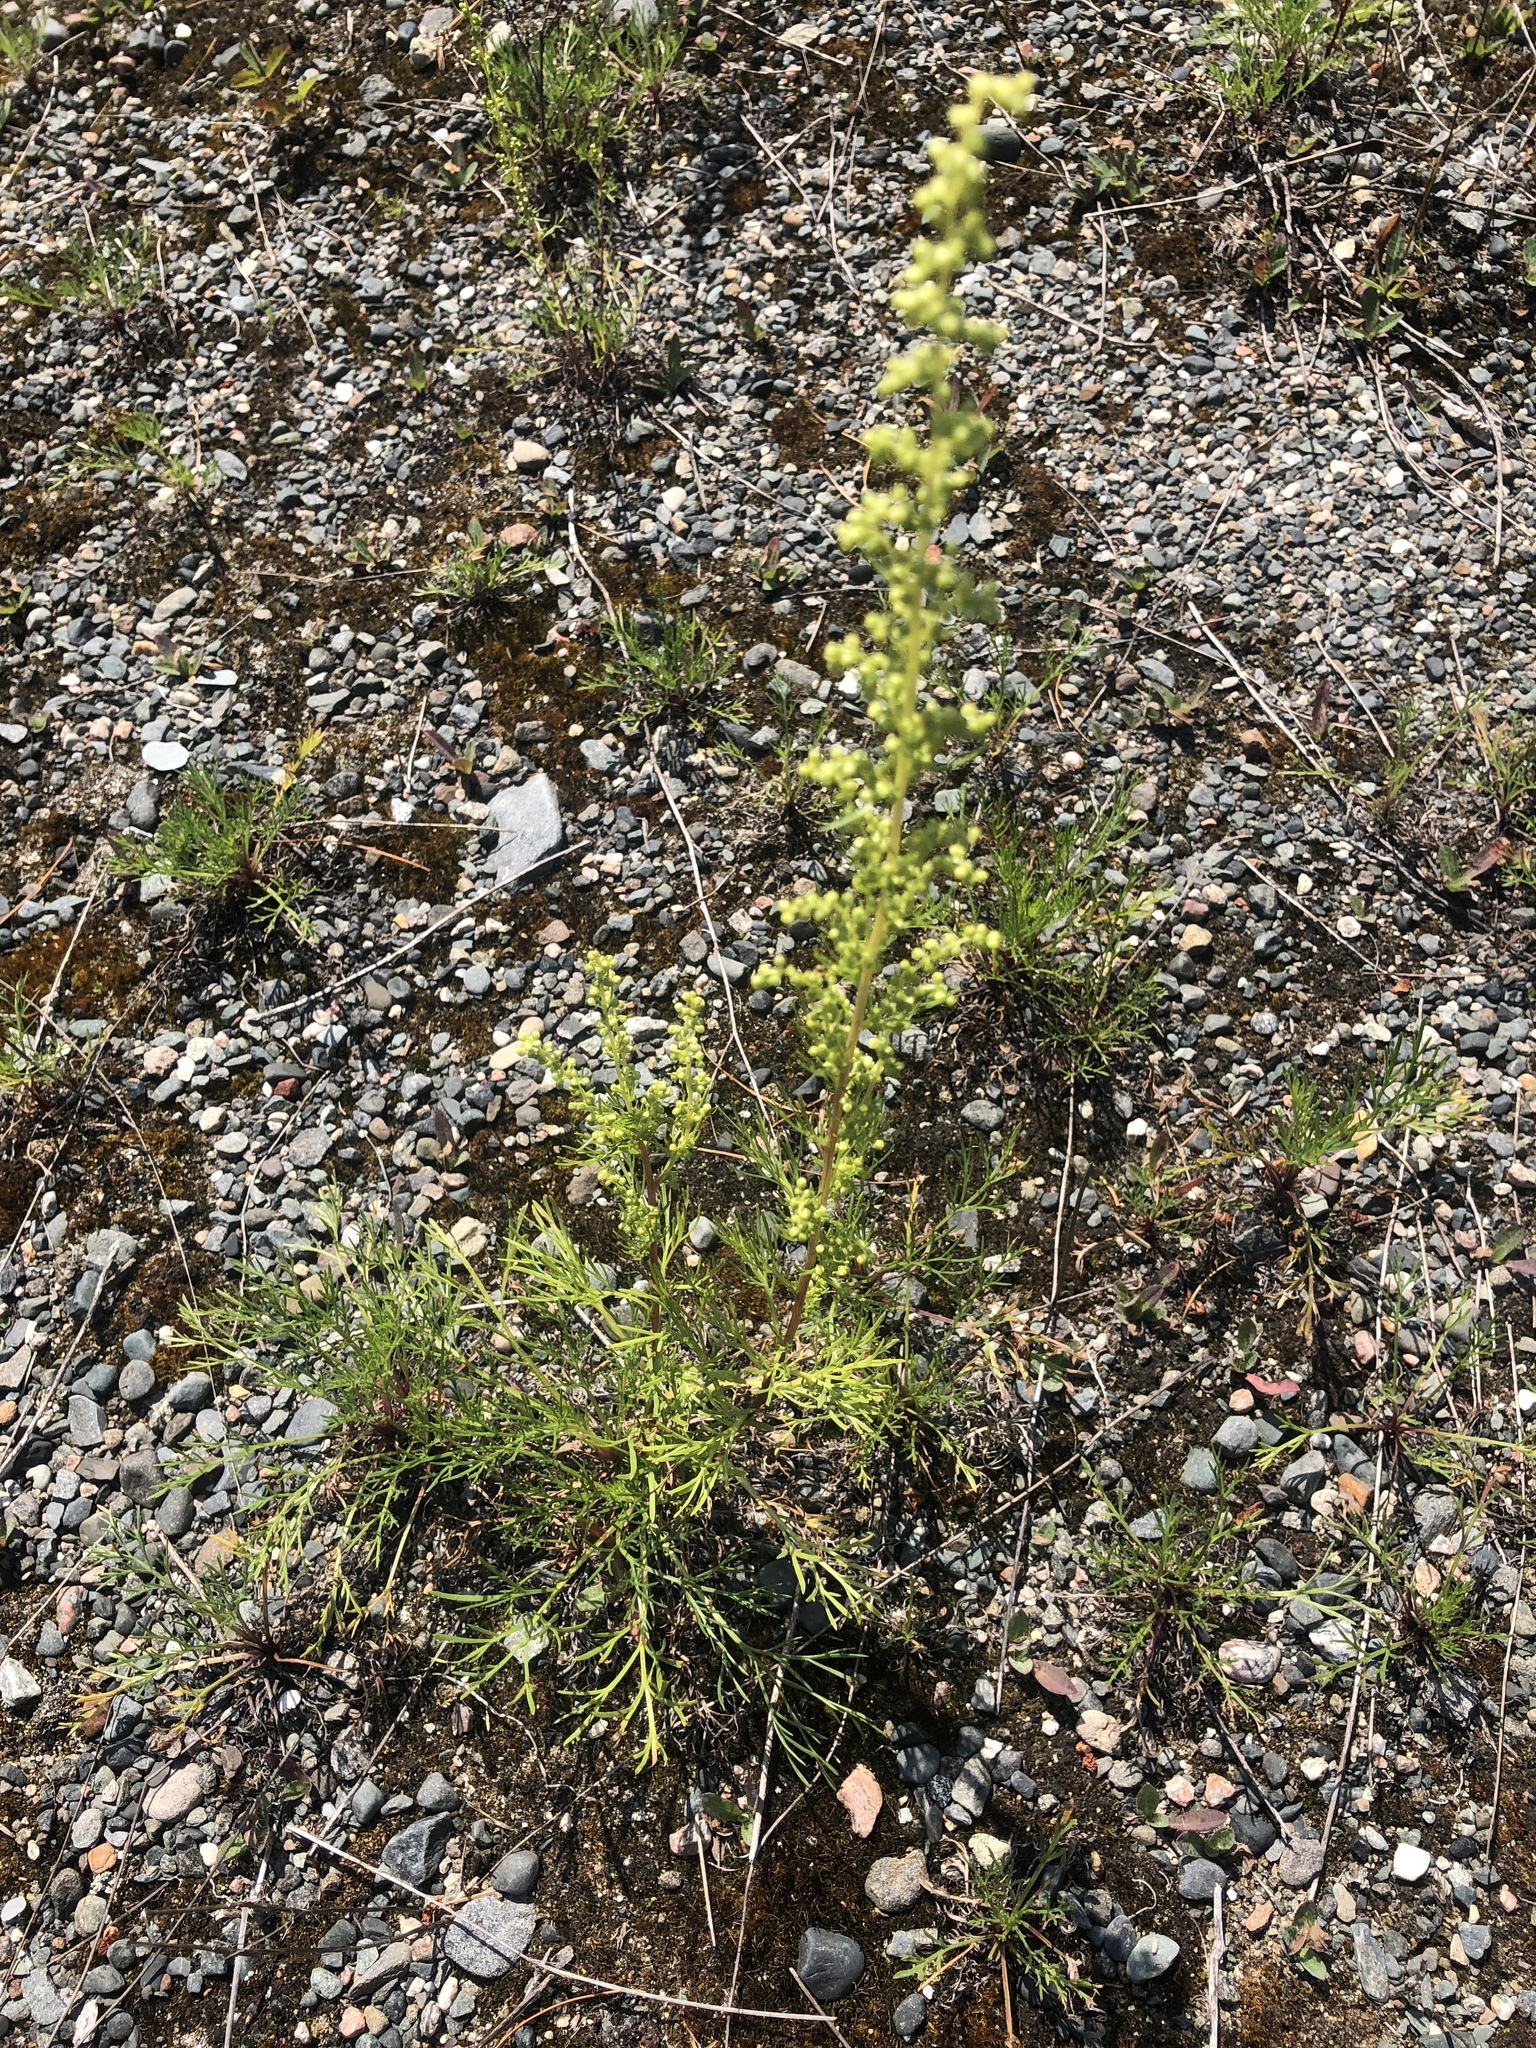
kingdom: Plantae
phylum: Tracheophyta
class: Magnoliopsida
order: Asterales
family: Asteraceae
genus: Artemisia
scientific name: Artemisia campestris
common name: Field wormwood
